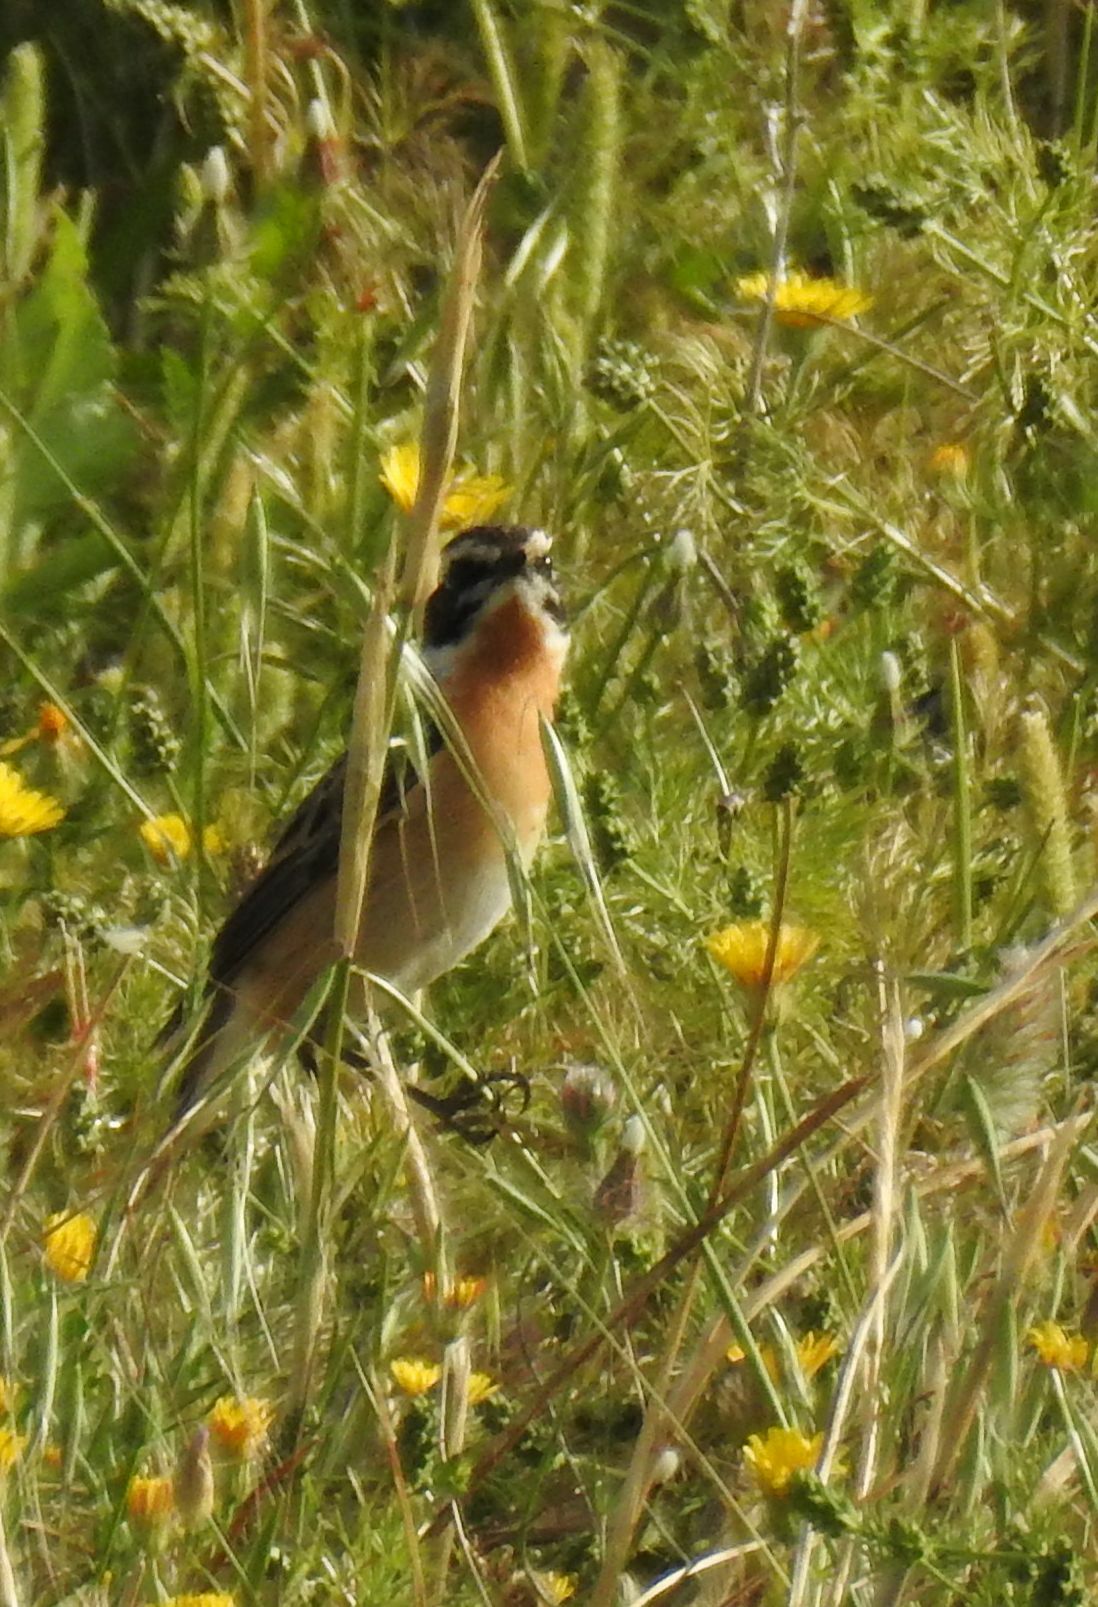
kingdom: Animalia
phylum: Chordata
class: Aves
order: Passeriformes
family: Muscicapidae
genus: Saxicola
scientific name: Saxicola rubetra
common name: Whinchat
